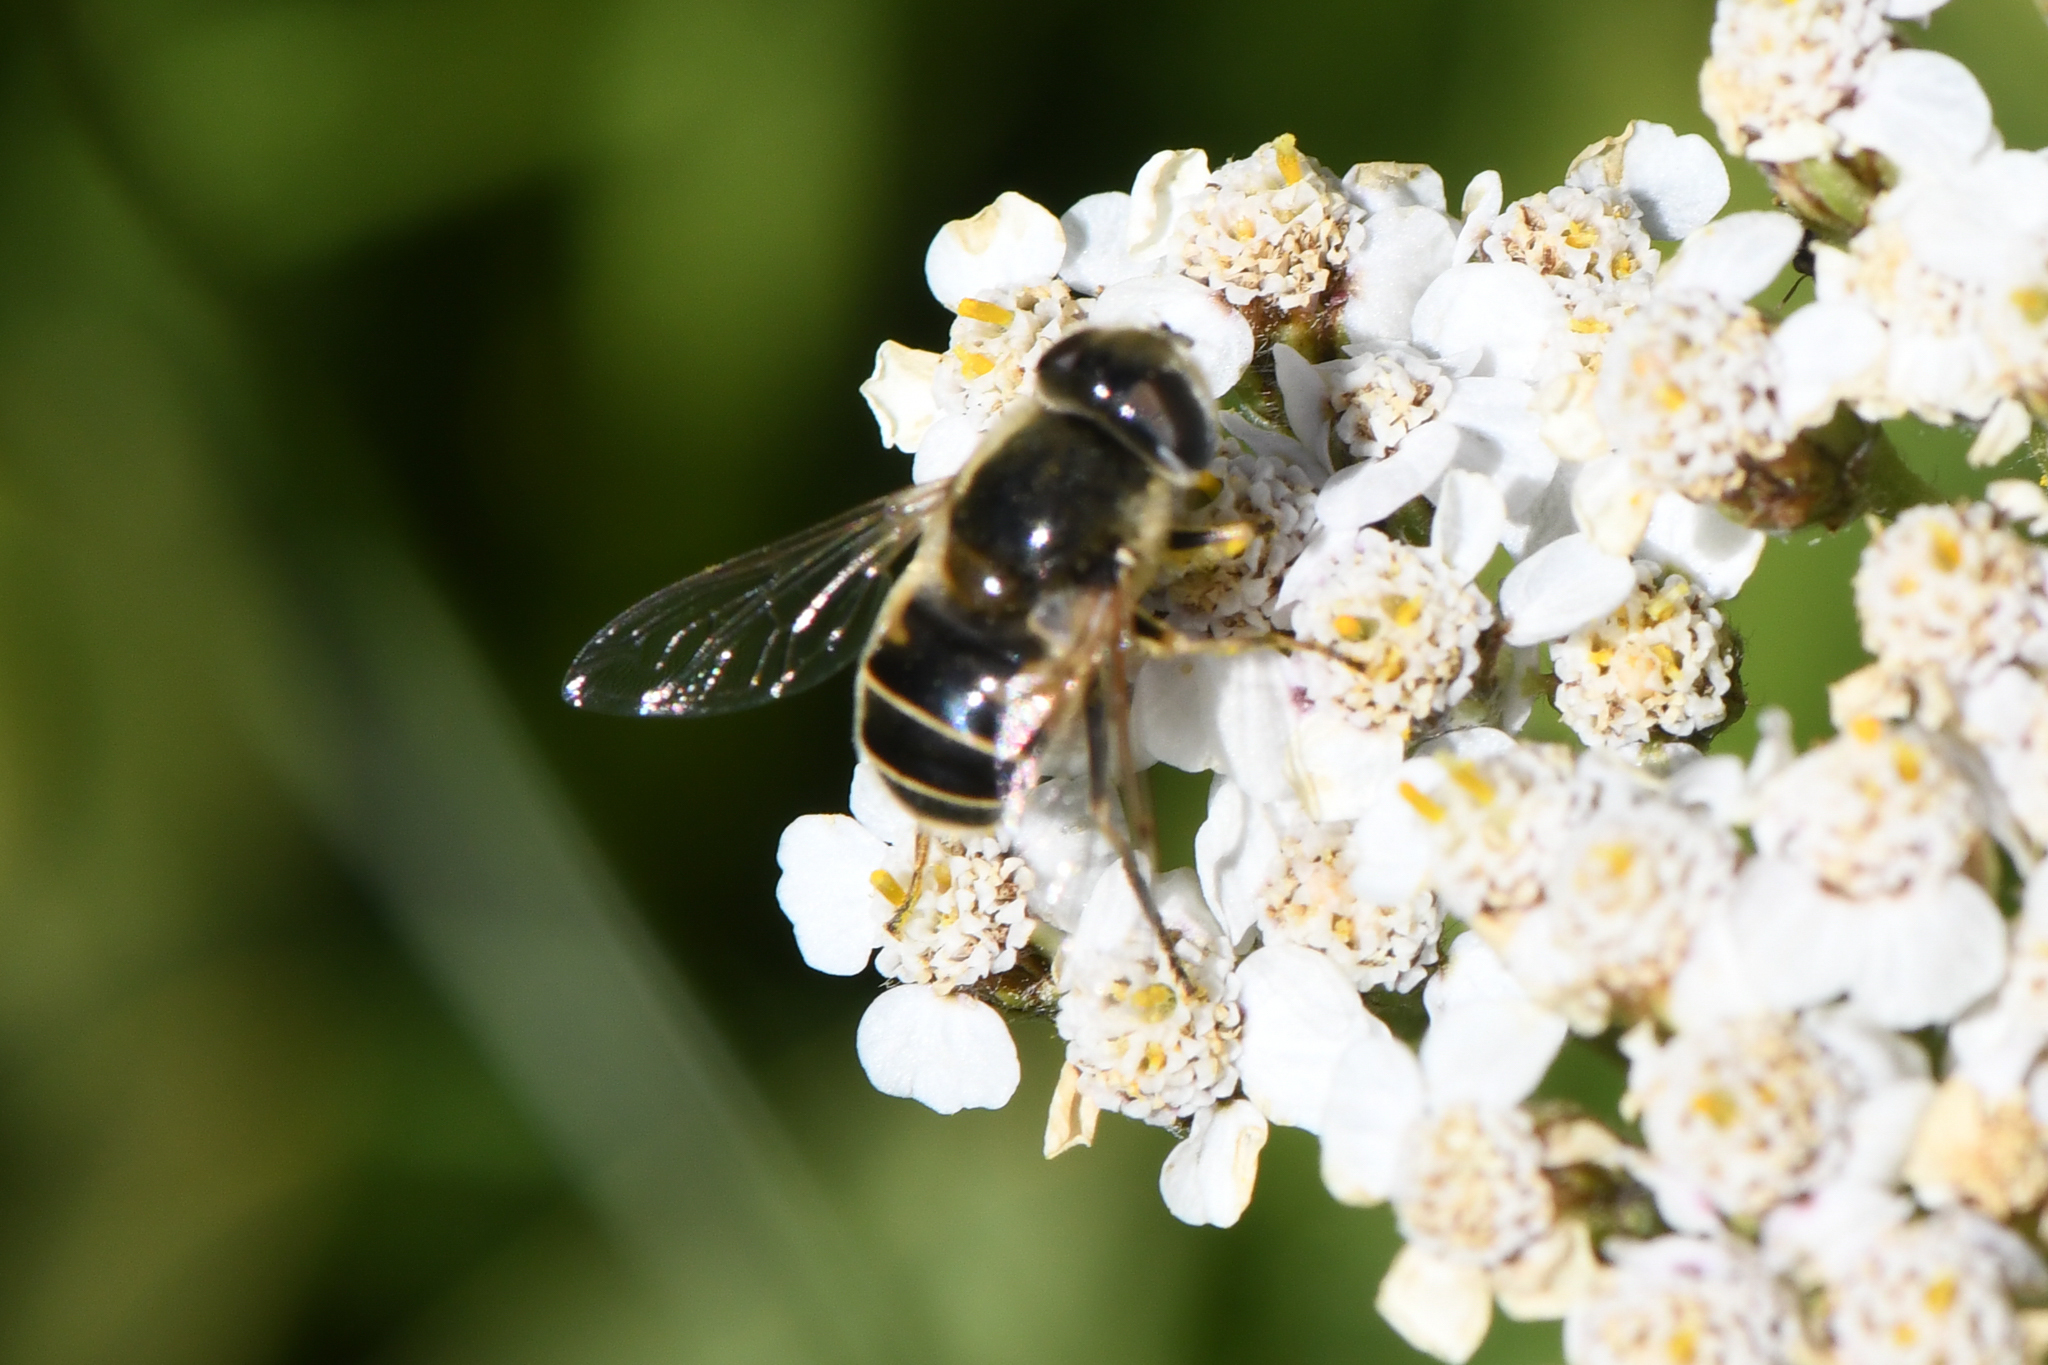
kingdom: Animalia
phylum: Arthropoda
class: Insecta
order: Diptera
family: Syrphidae
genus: Eristalis
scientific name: Eristalis hirta
